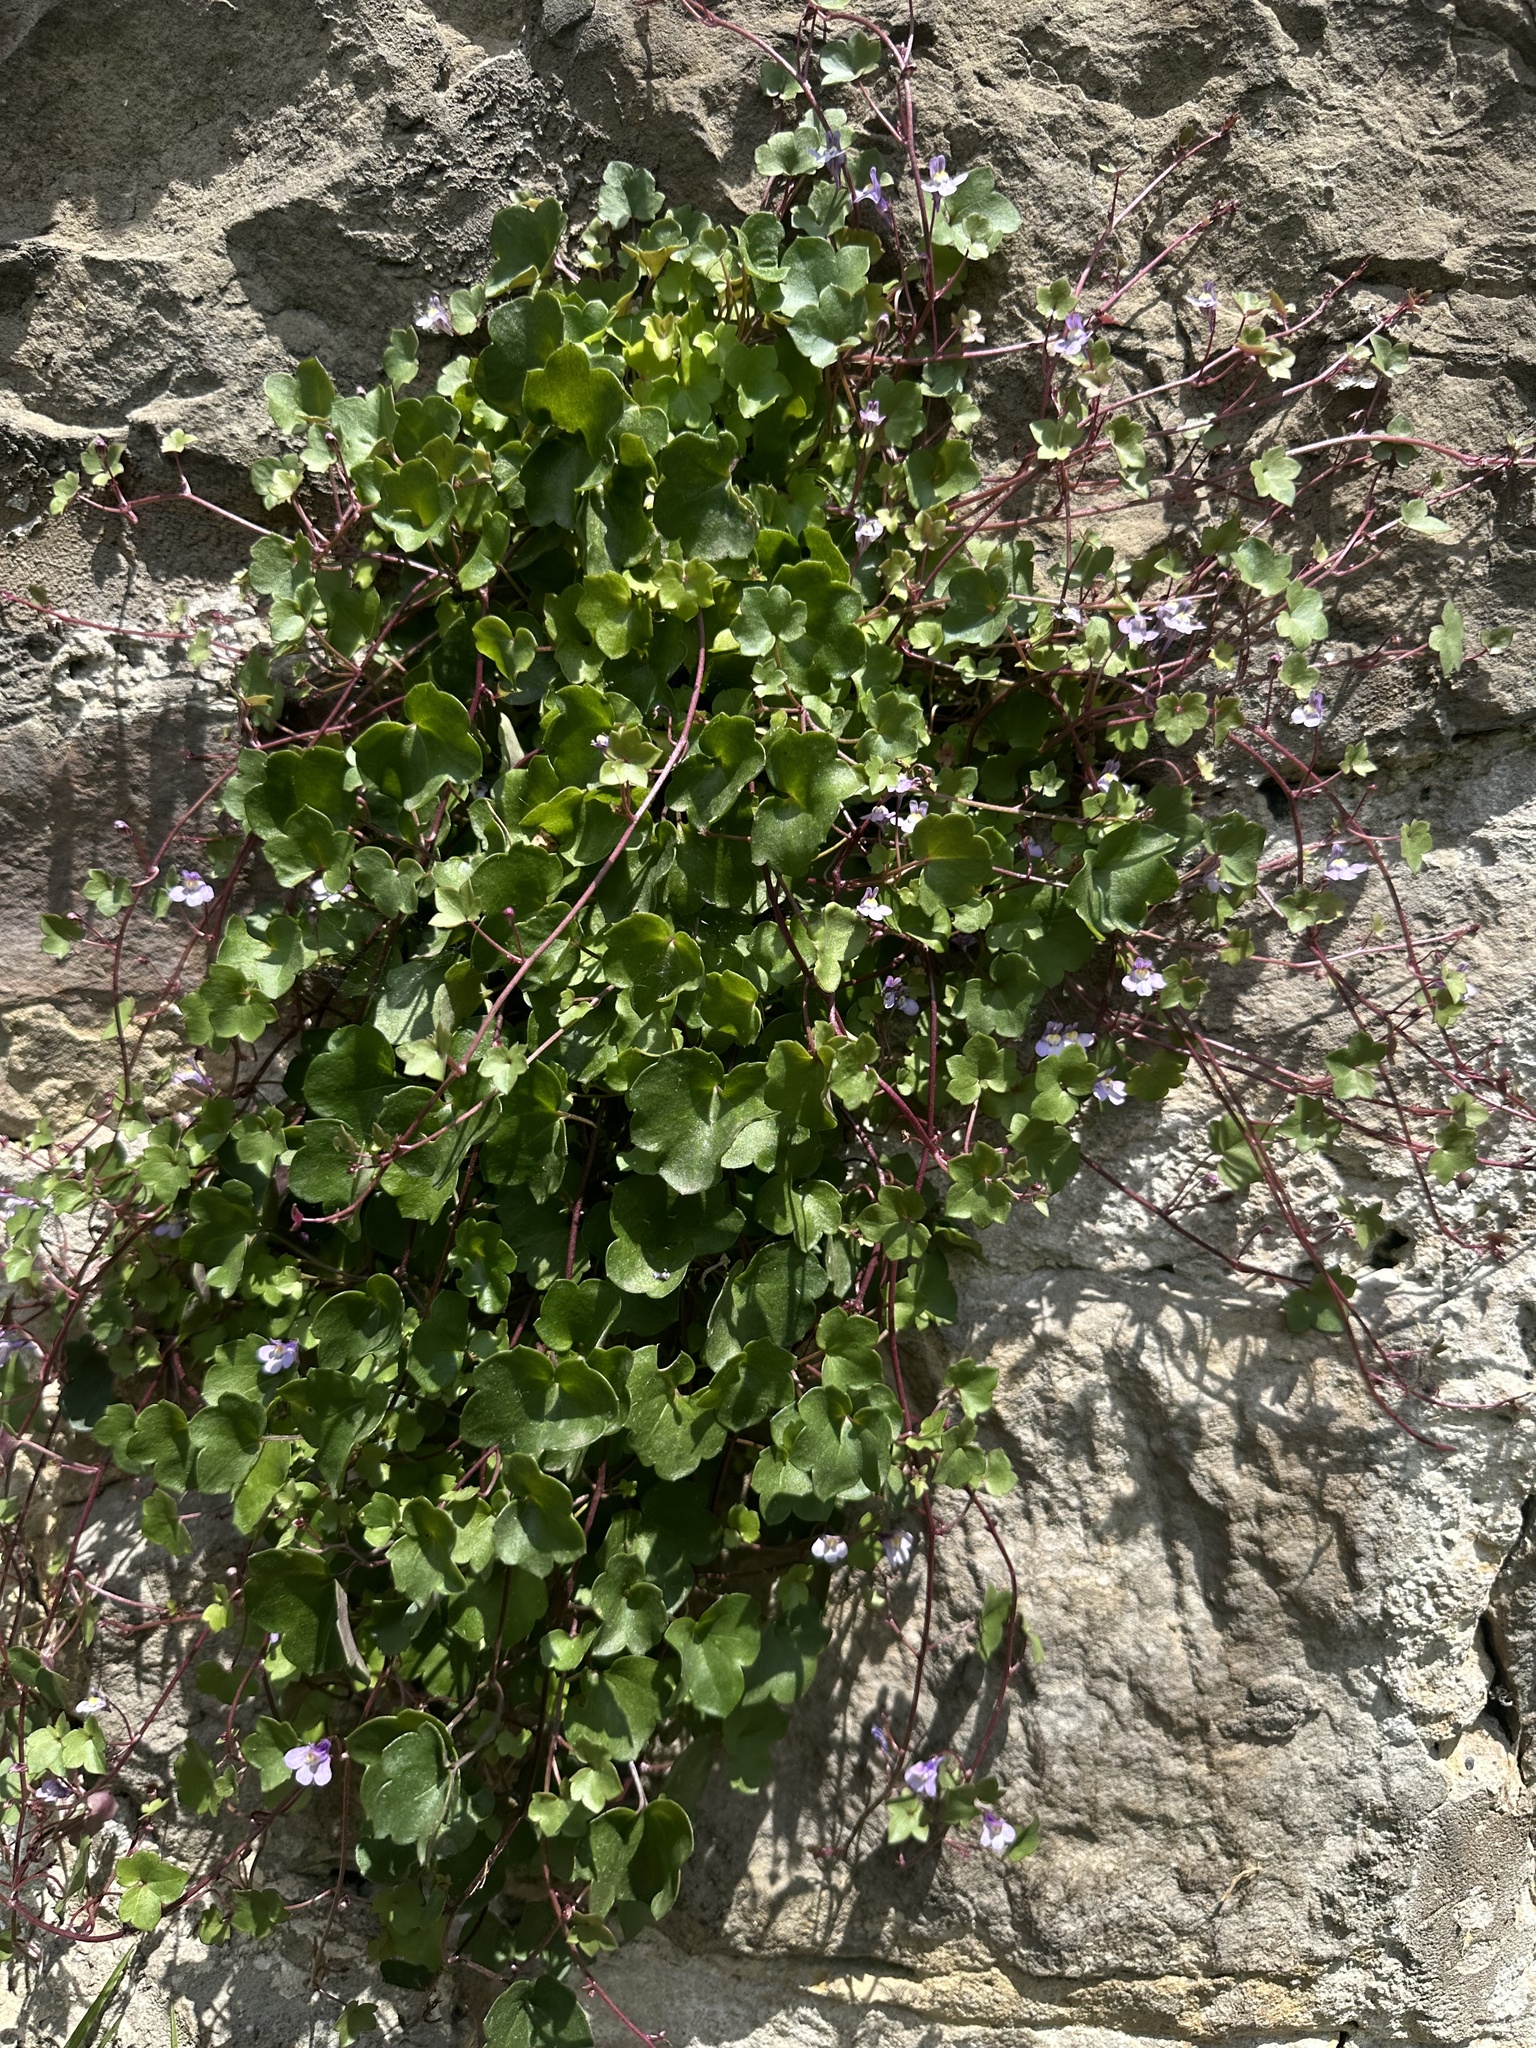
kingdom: Plantae
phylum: Tracheophyta
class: Magnoliopsida
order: Lamiales
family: Plantaginaceae
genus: Cymbalaria
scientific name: Cymbalaria muralis
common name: Ivy-leaved toadflax
